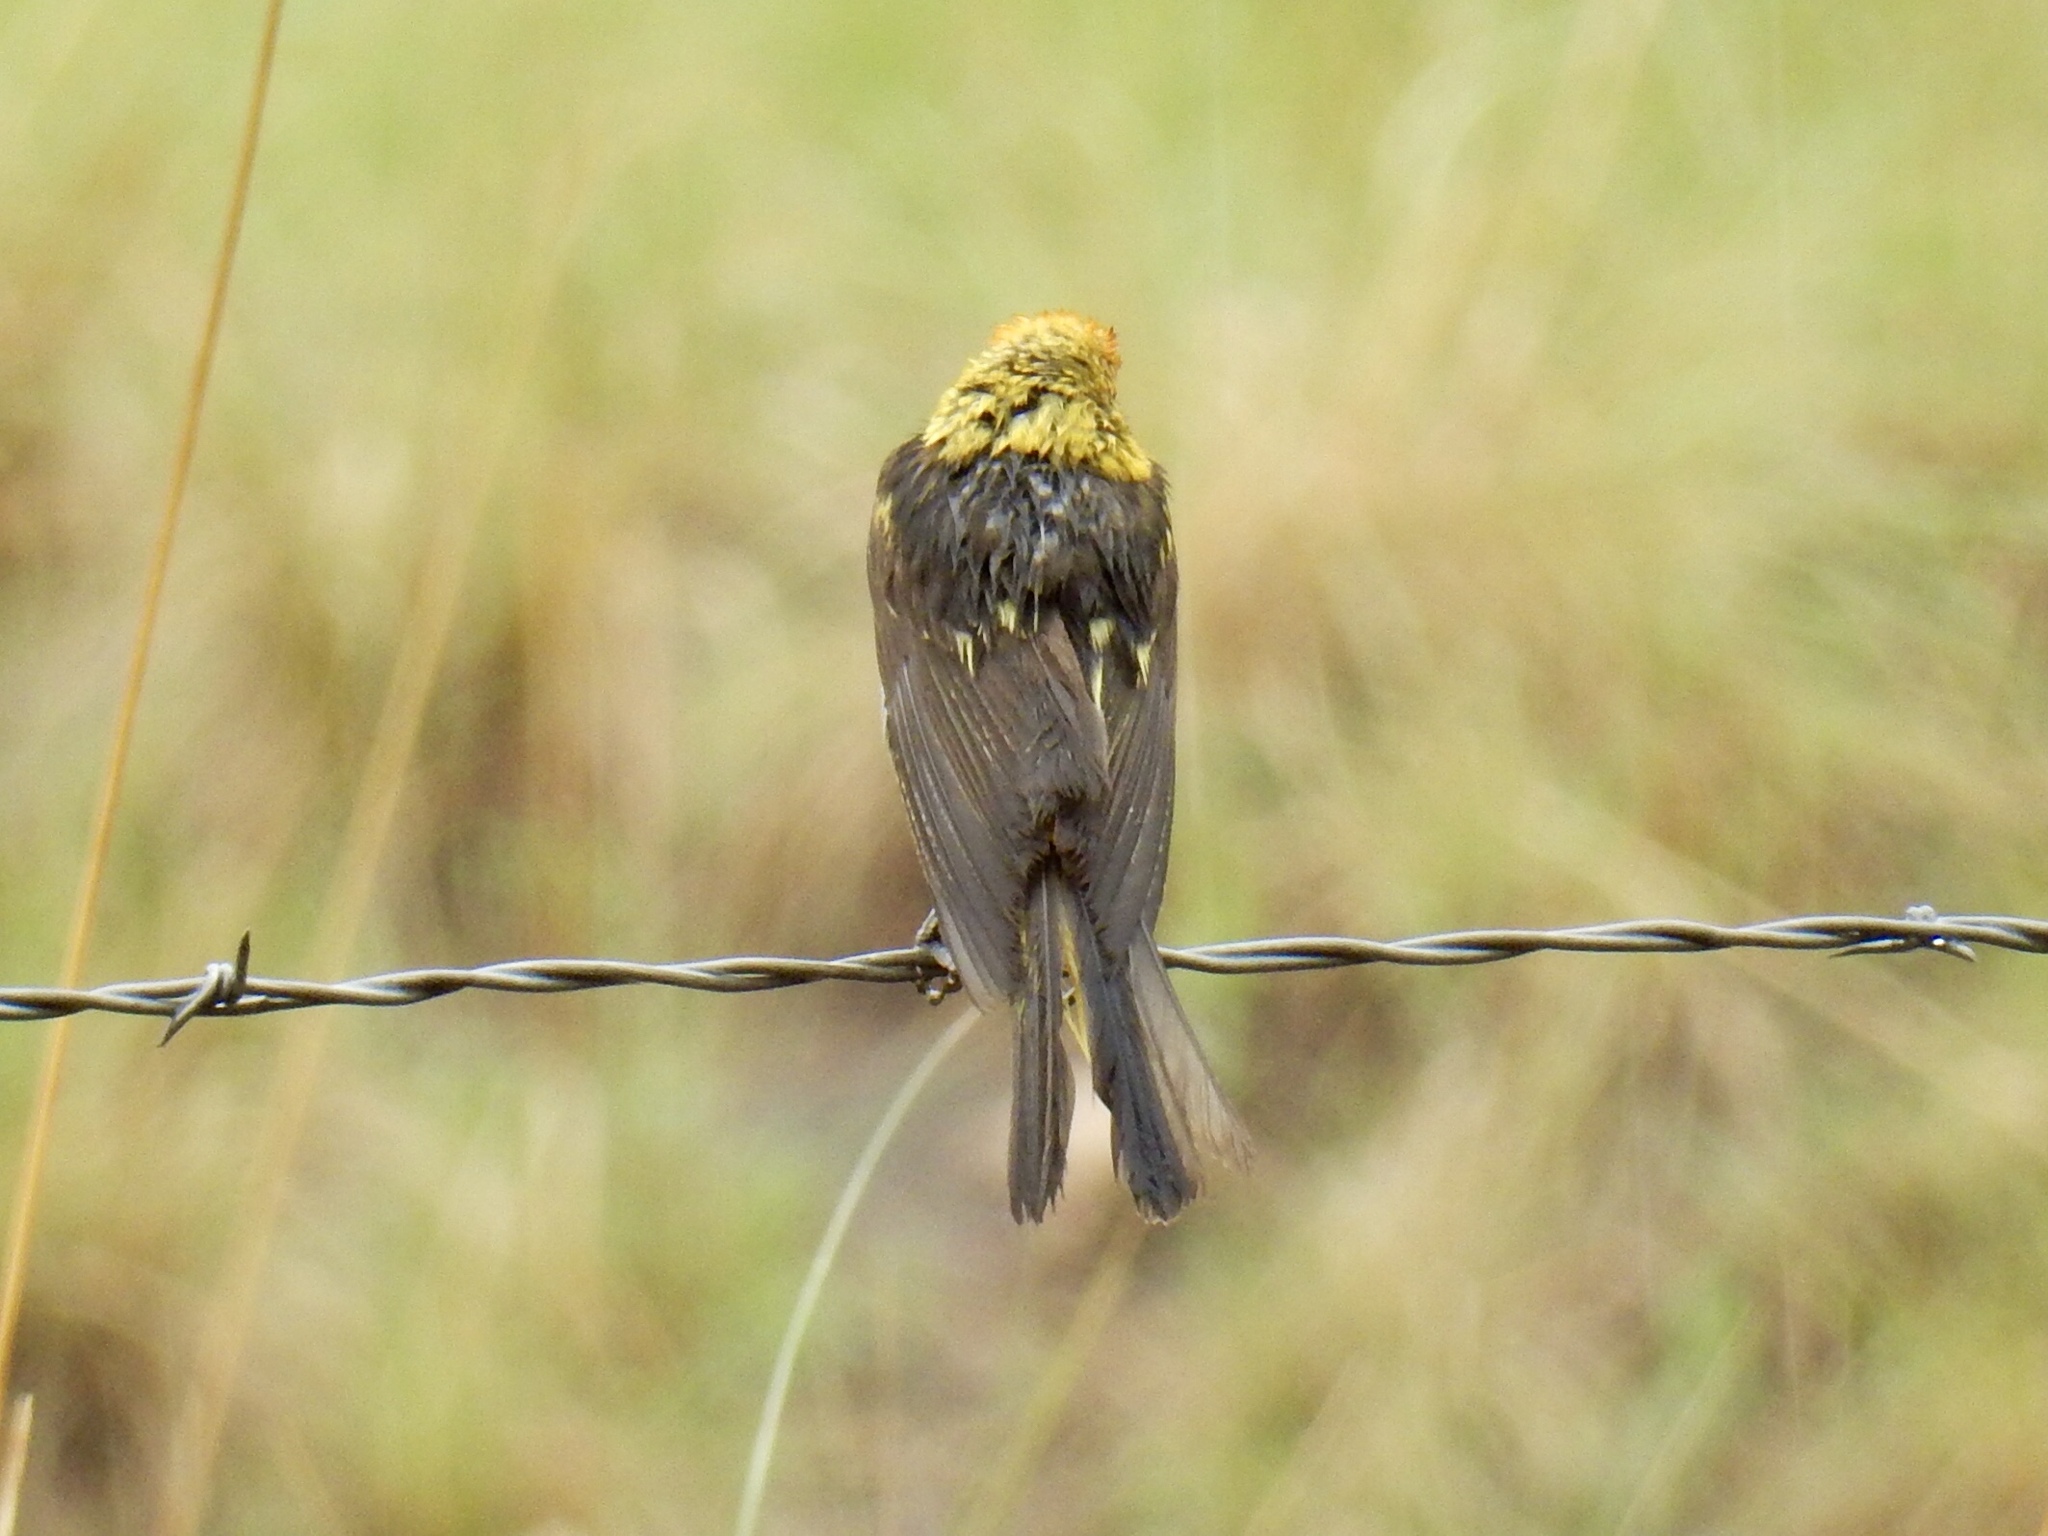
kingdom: Animalia
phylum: Chordata
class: Aves
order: Passeriformes
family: Cardinalidae
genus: Piranga
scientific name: Piranga ludoviciana
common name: Western tanager
